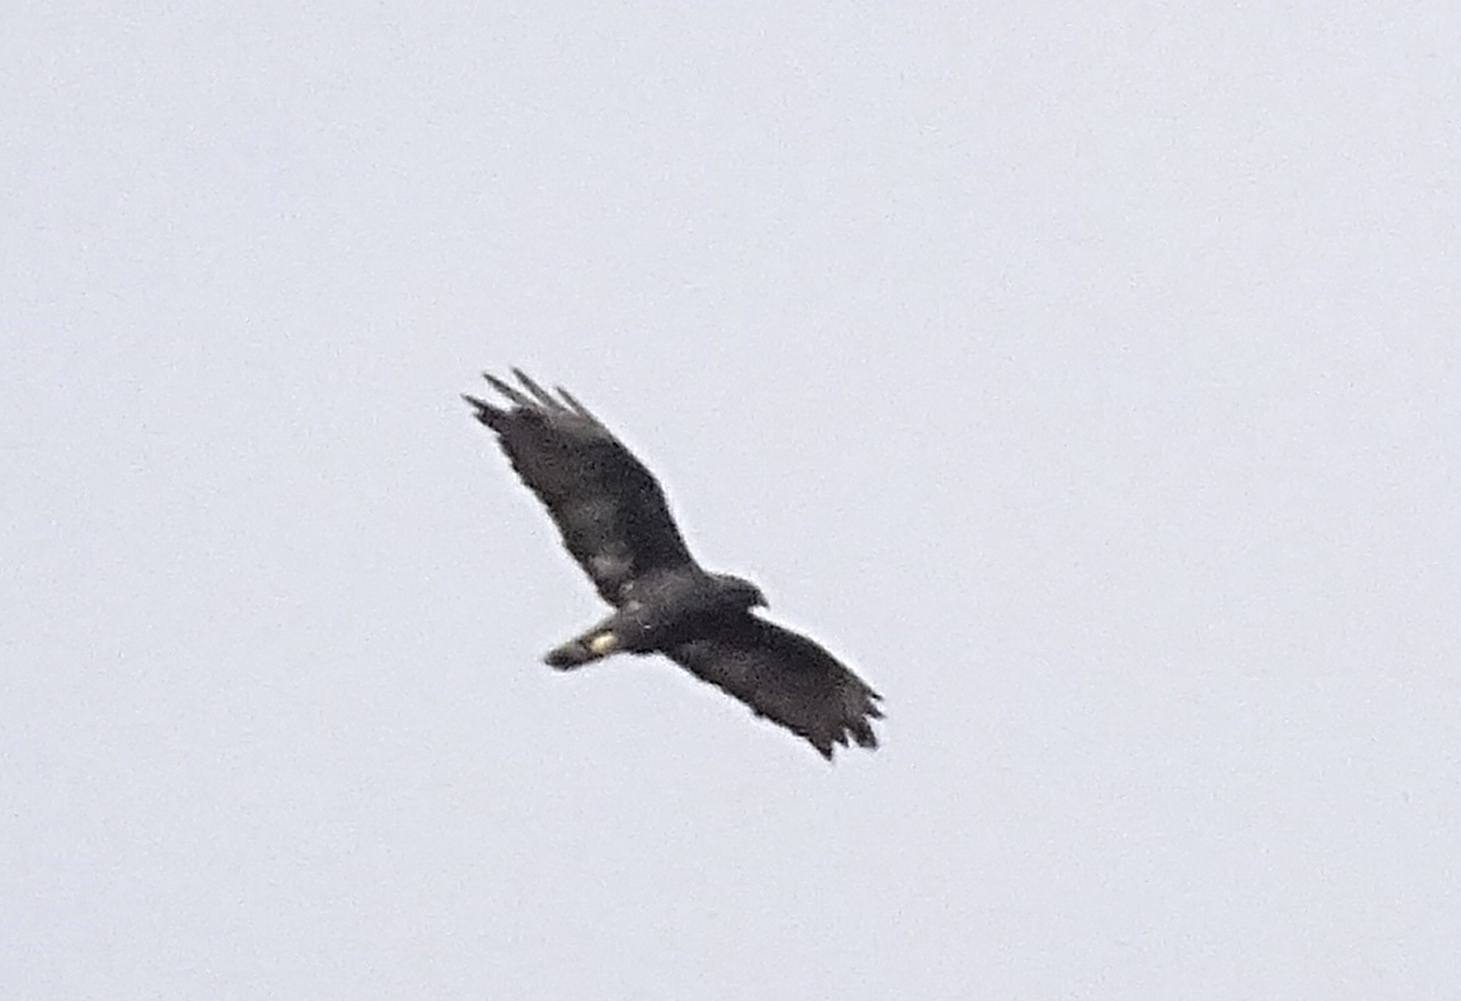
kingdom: Animalia
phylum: Chordata
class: Aves
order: Accipitriformes
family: Accipitridae
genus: Buteo
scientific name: Buteo albonotatus
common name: Zone-tailed hawk
